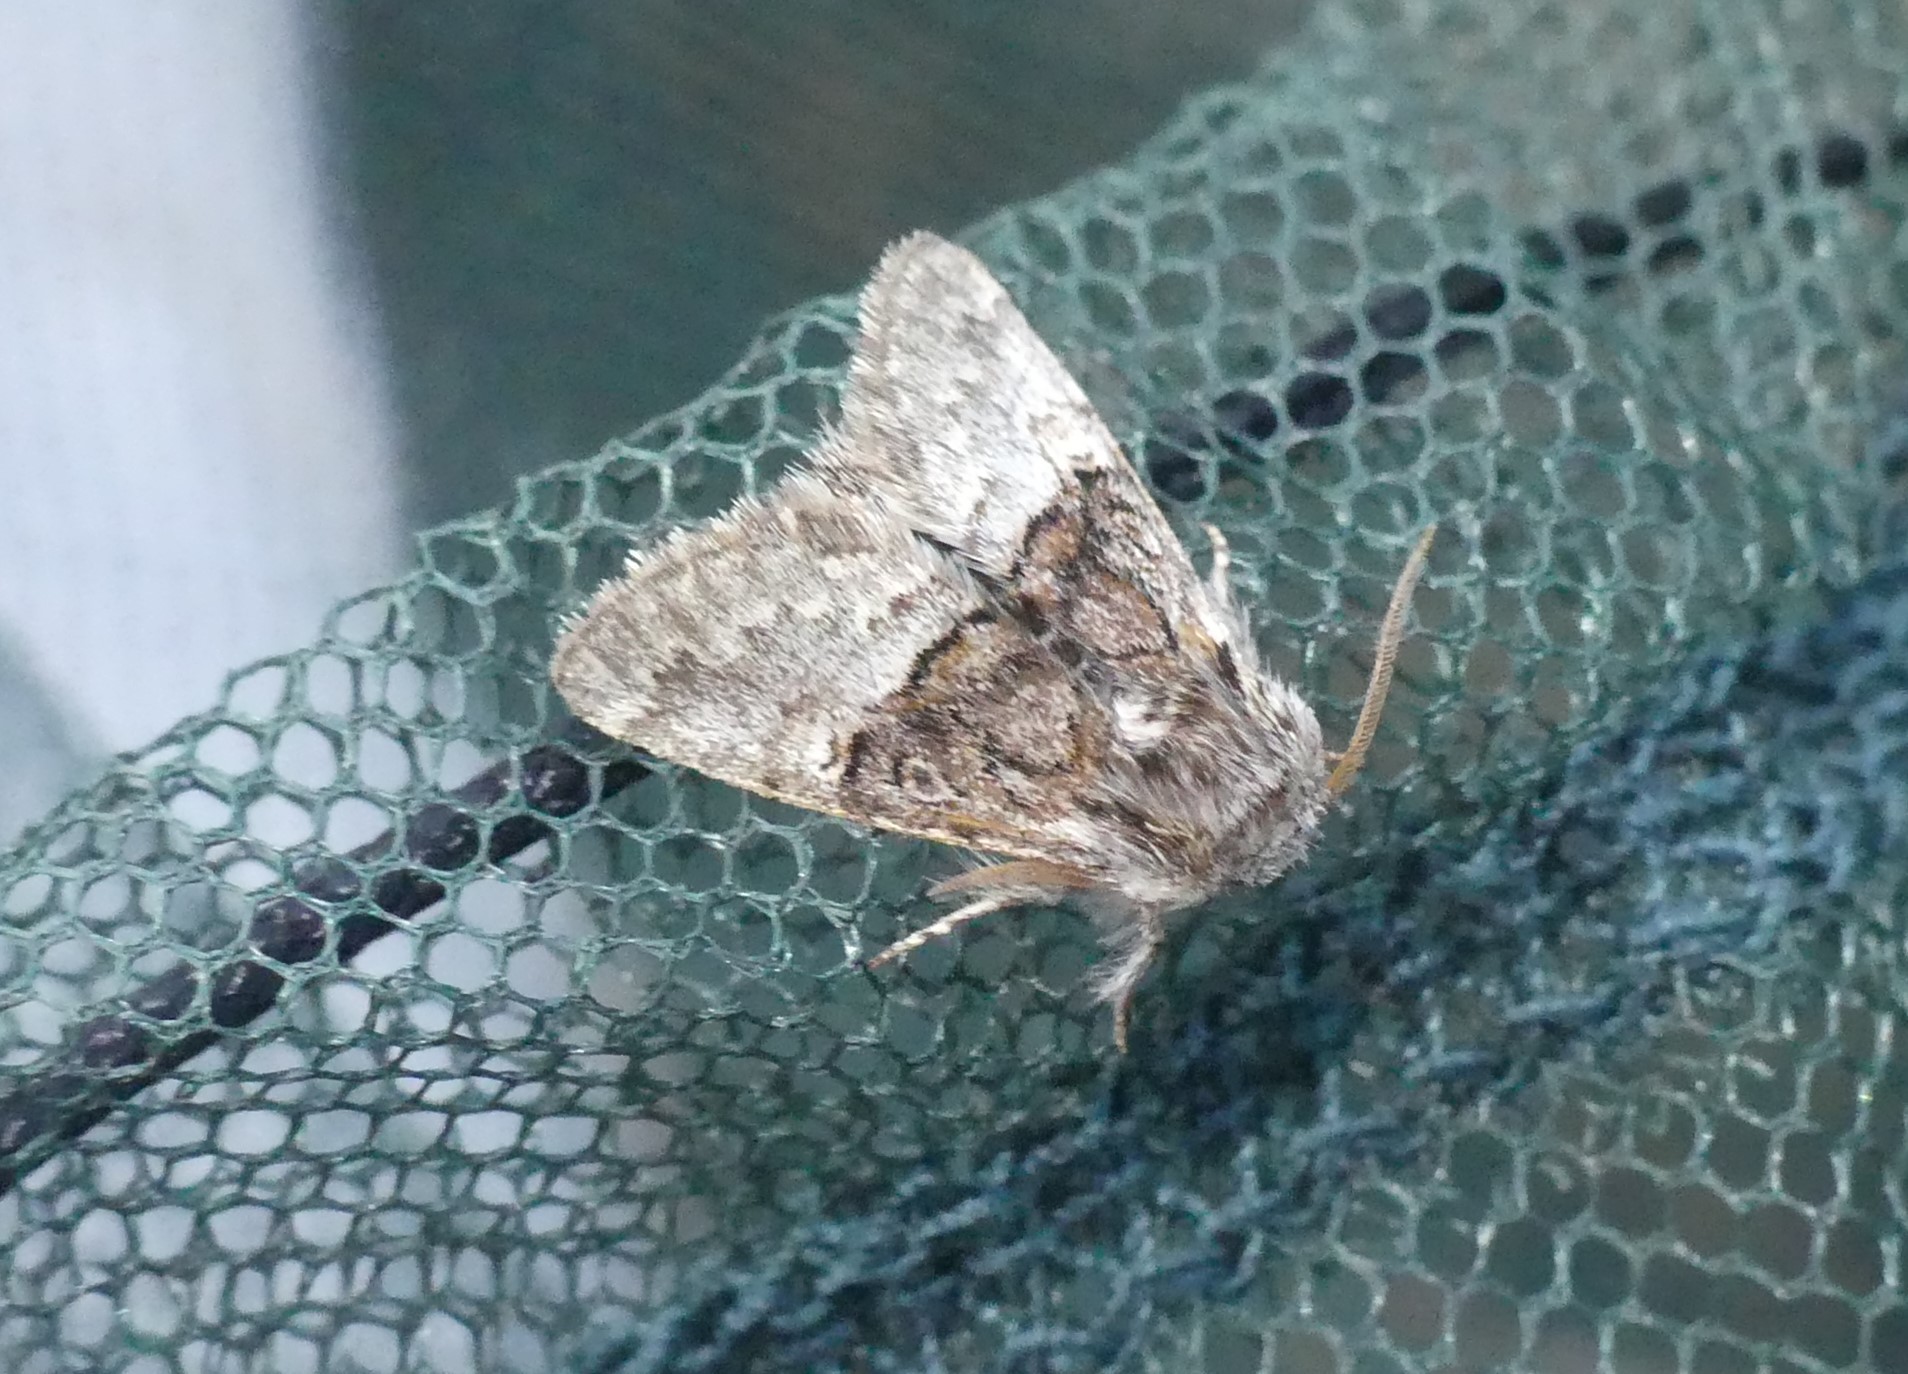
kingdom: Animalia
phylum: Arthropoda
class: Insecta
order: Lepidoptera
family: Noctuidae
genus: Colocasia
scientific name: Colocasia coryli
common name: Nut-tree tussock
